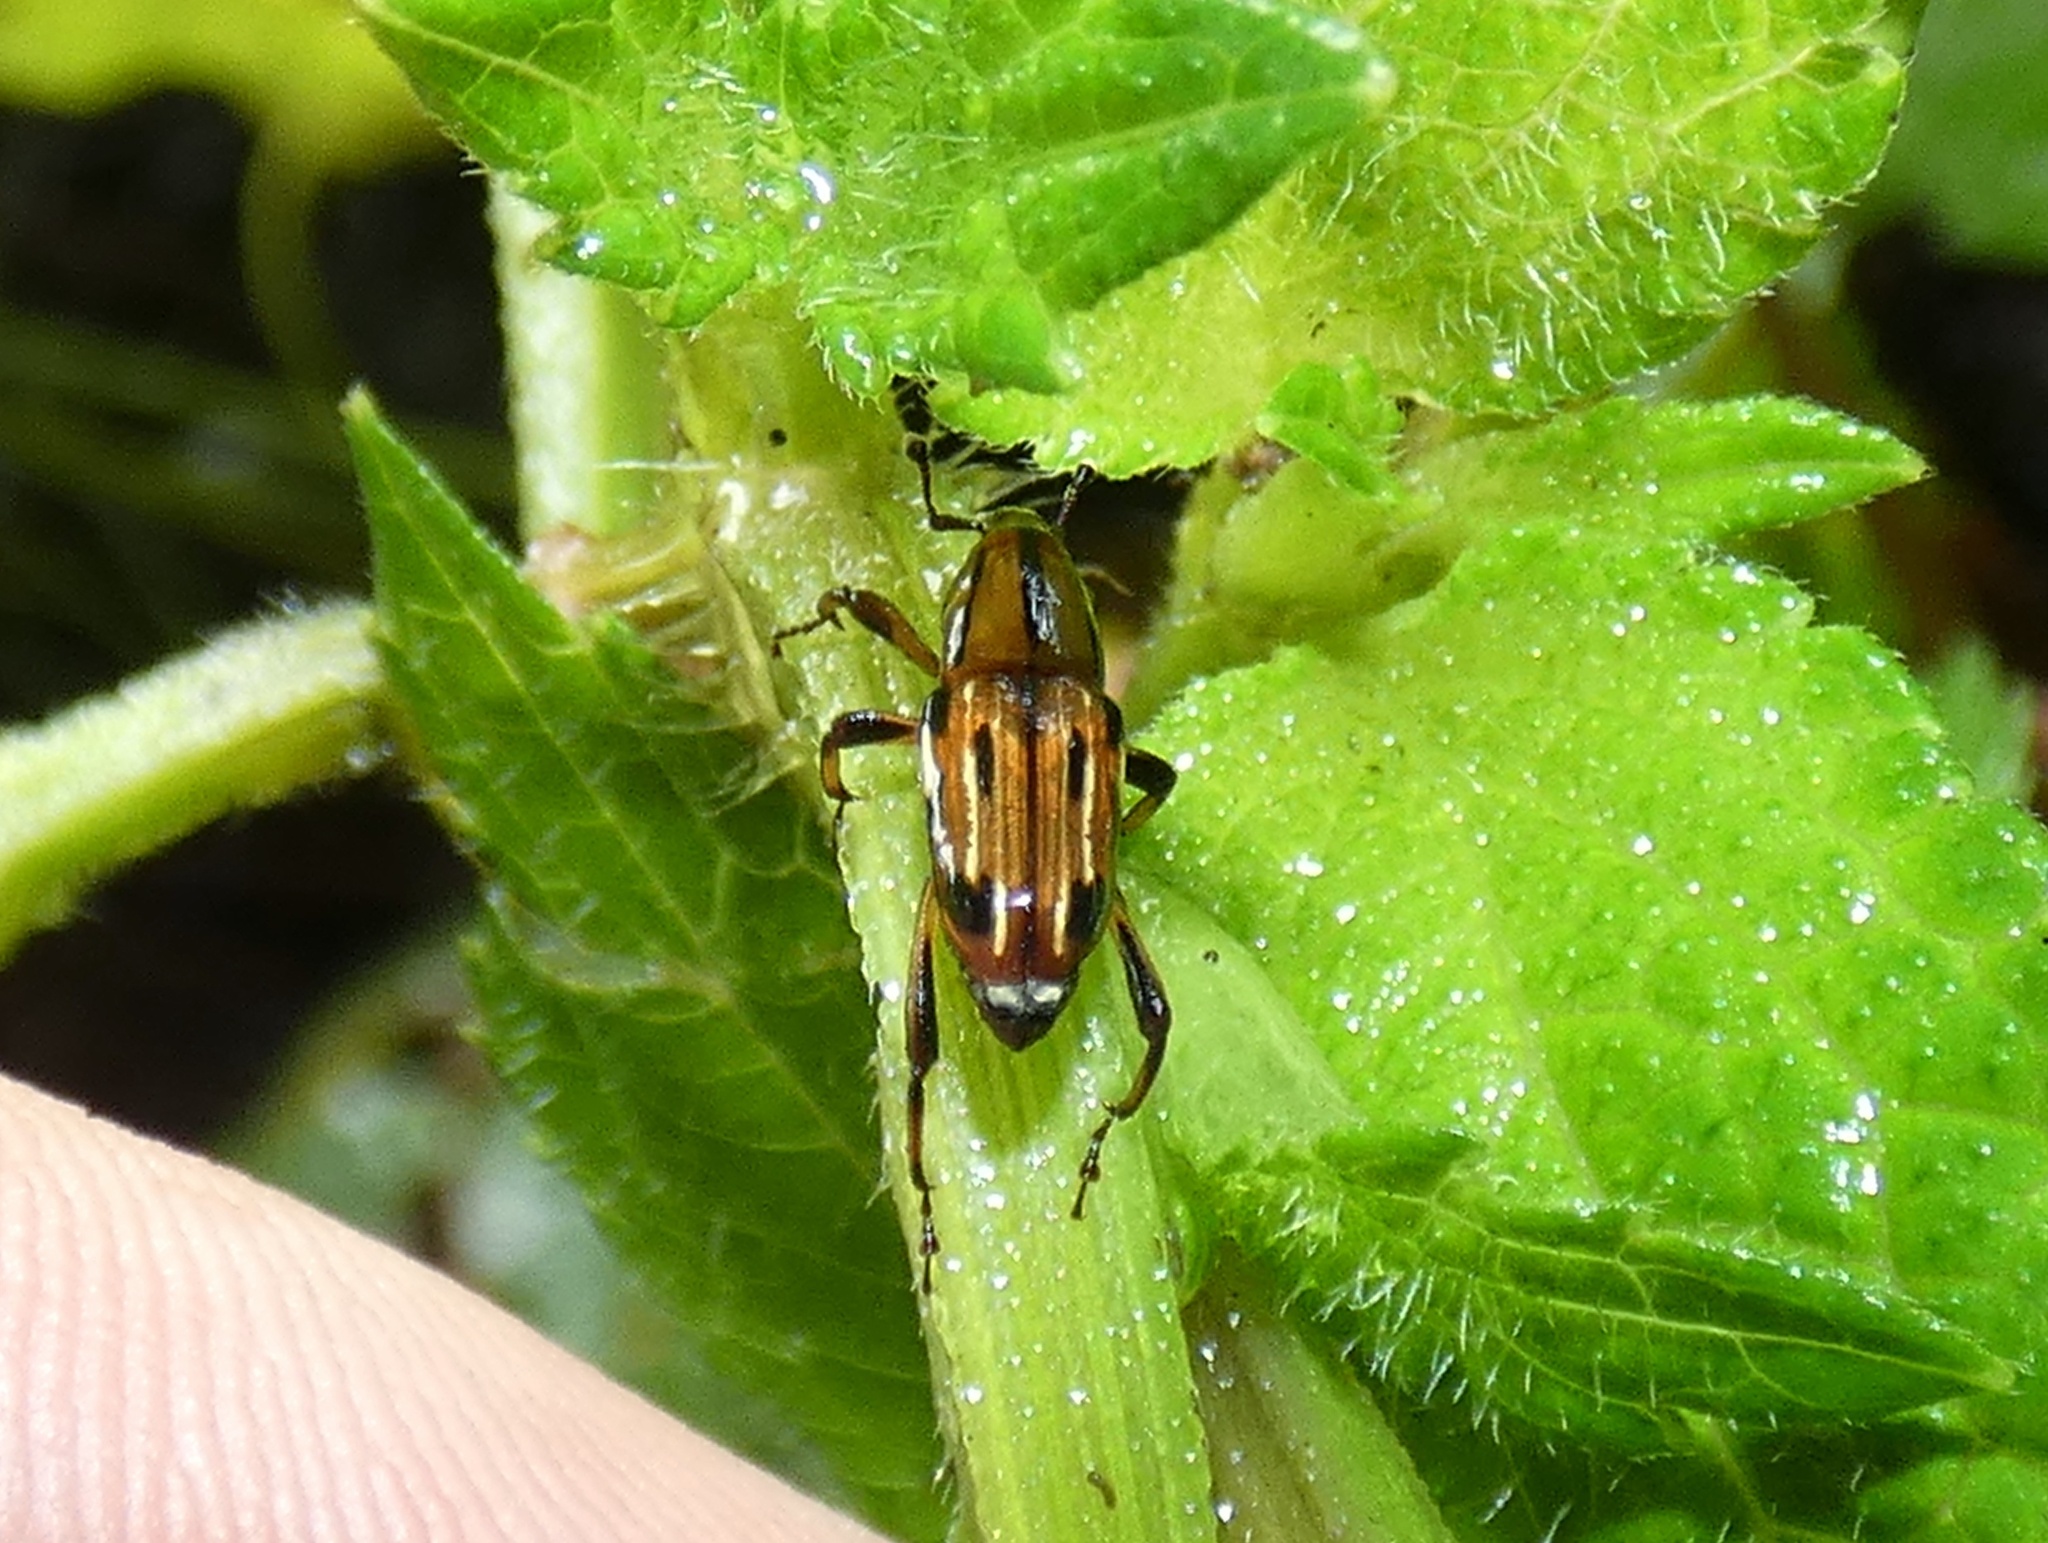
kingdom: Animalia
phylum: Arthropoda
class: Insecta
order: Coleoptera
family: Dryophthoridae
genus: Rhodobaenus
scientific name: Rhodobaenus lineiger
